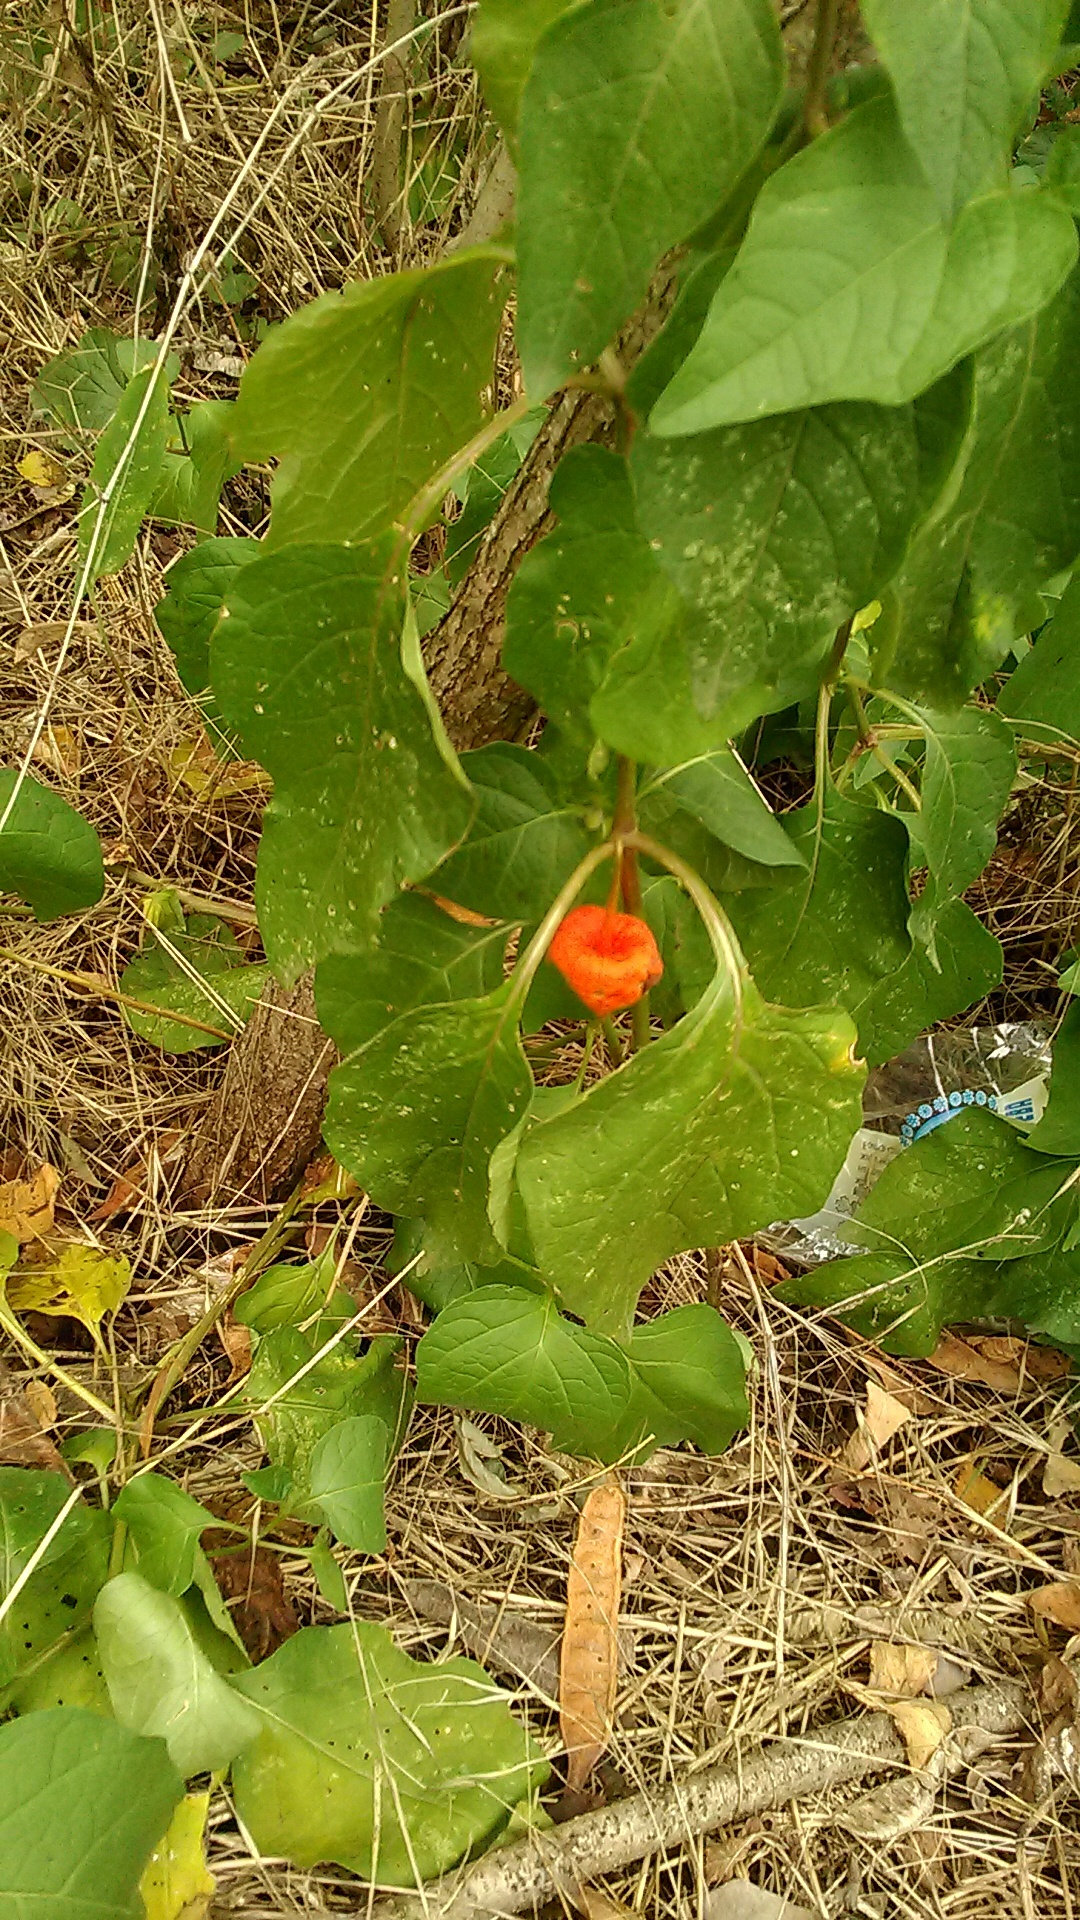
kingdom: Plantae
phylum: Tracheophyta
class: Magnoliopsida
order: Solanales
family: Solanaceae
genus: Alkekengi
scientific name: Alkekengi officinarum
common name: Japanese-lantern
